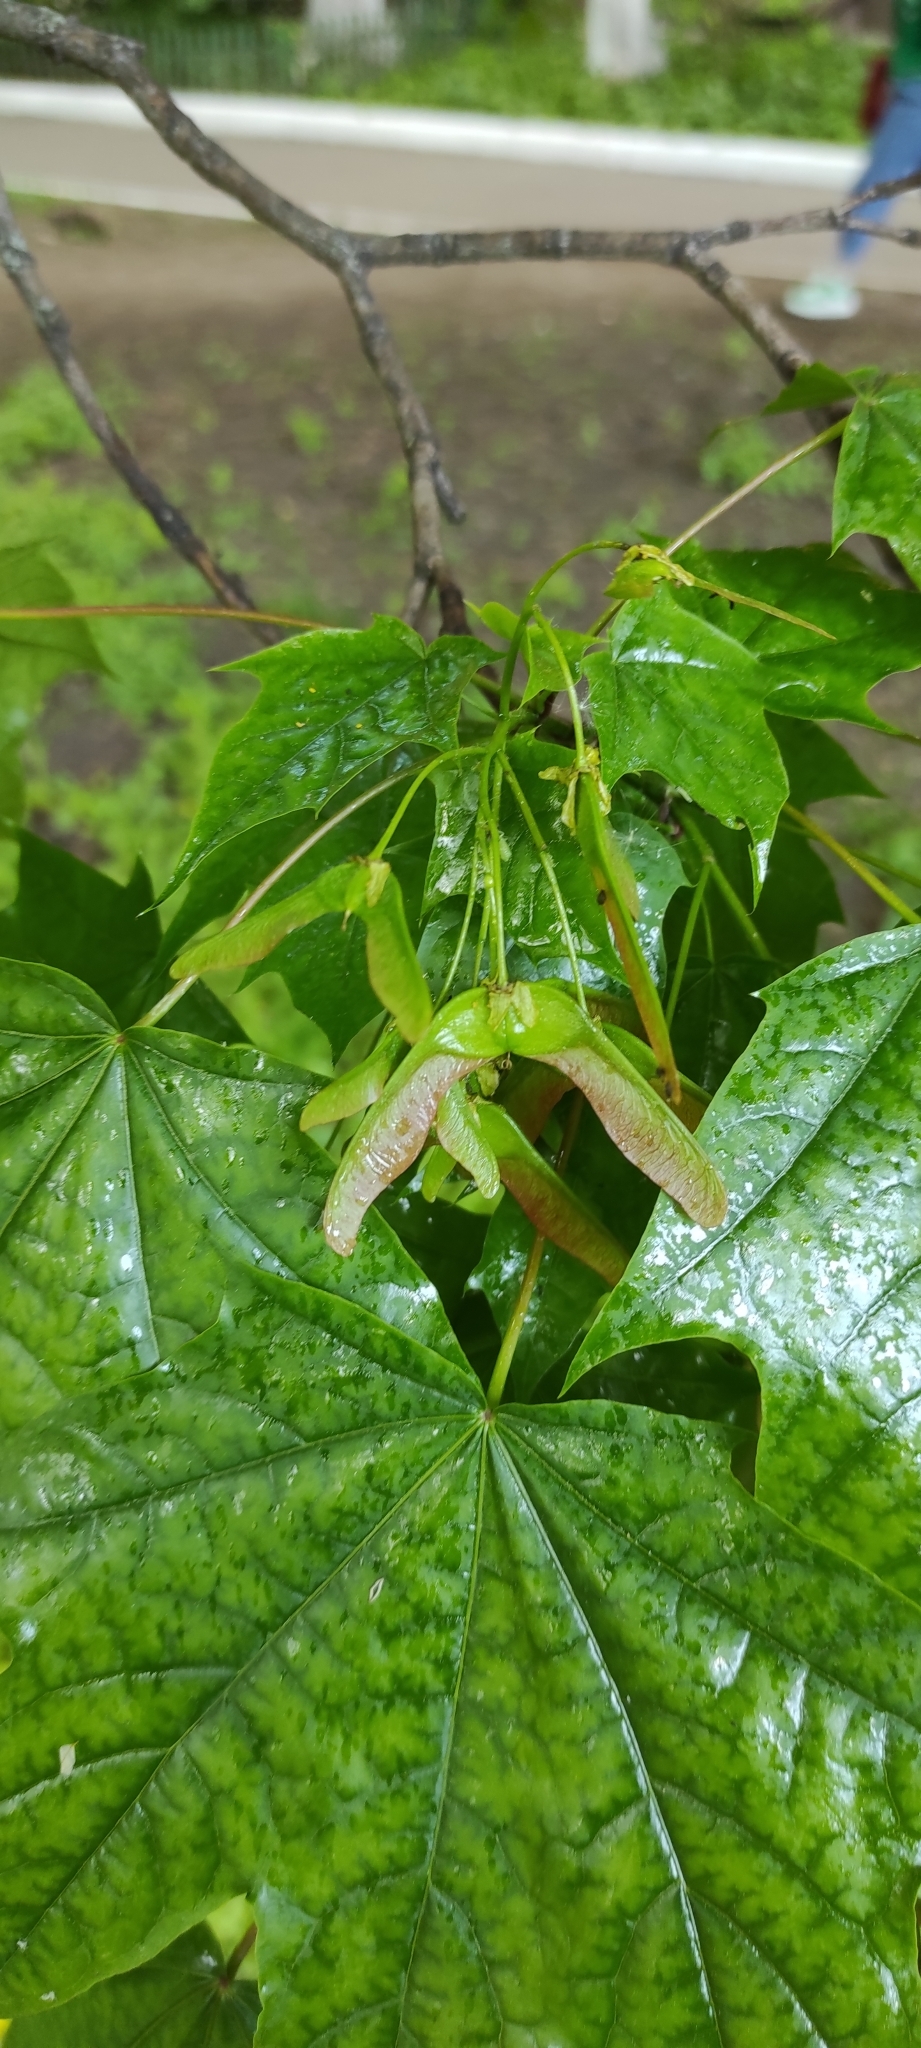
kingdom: Plantae
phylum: Tracheophyta
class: Magnoliopsida
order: Sapindales
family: Sapindaceae
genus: Acer
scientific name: Acer platanoides
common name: Norway maple
